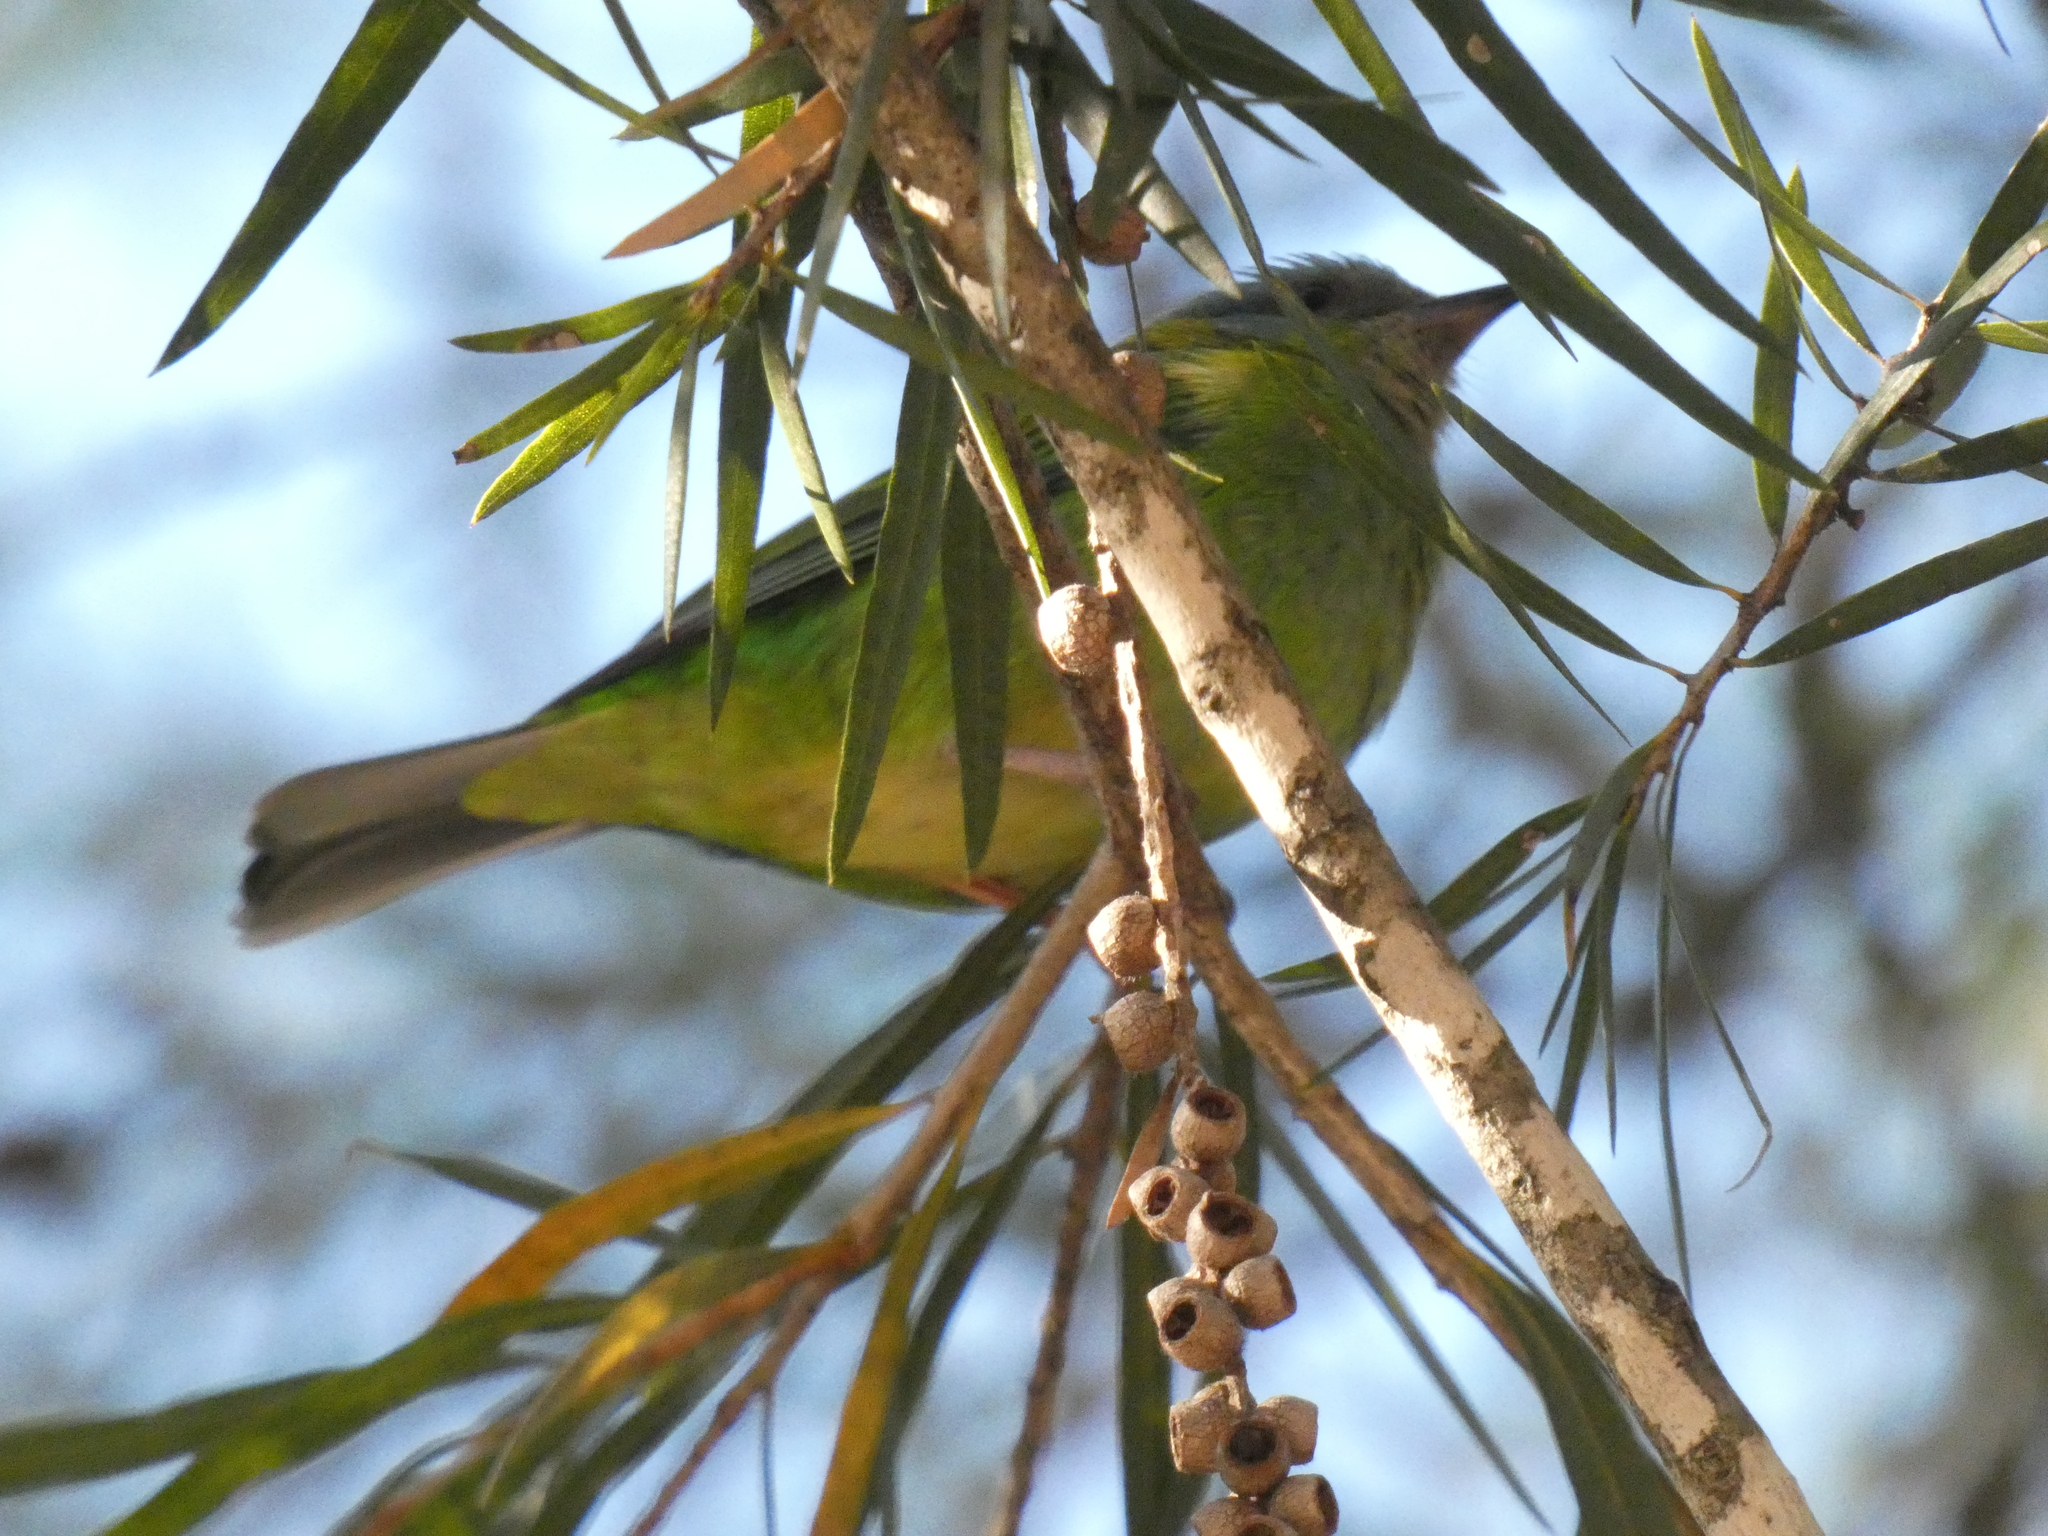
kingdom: Animalia
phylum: Chordata
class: Aves
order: Passeriformes
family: Thraupidae
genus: Dacnis
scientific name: Dacnis cayana
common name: Blue dacnis
